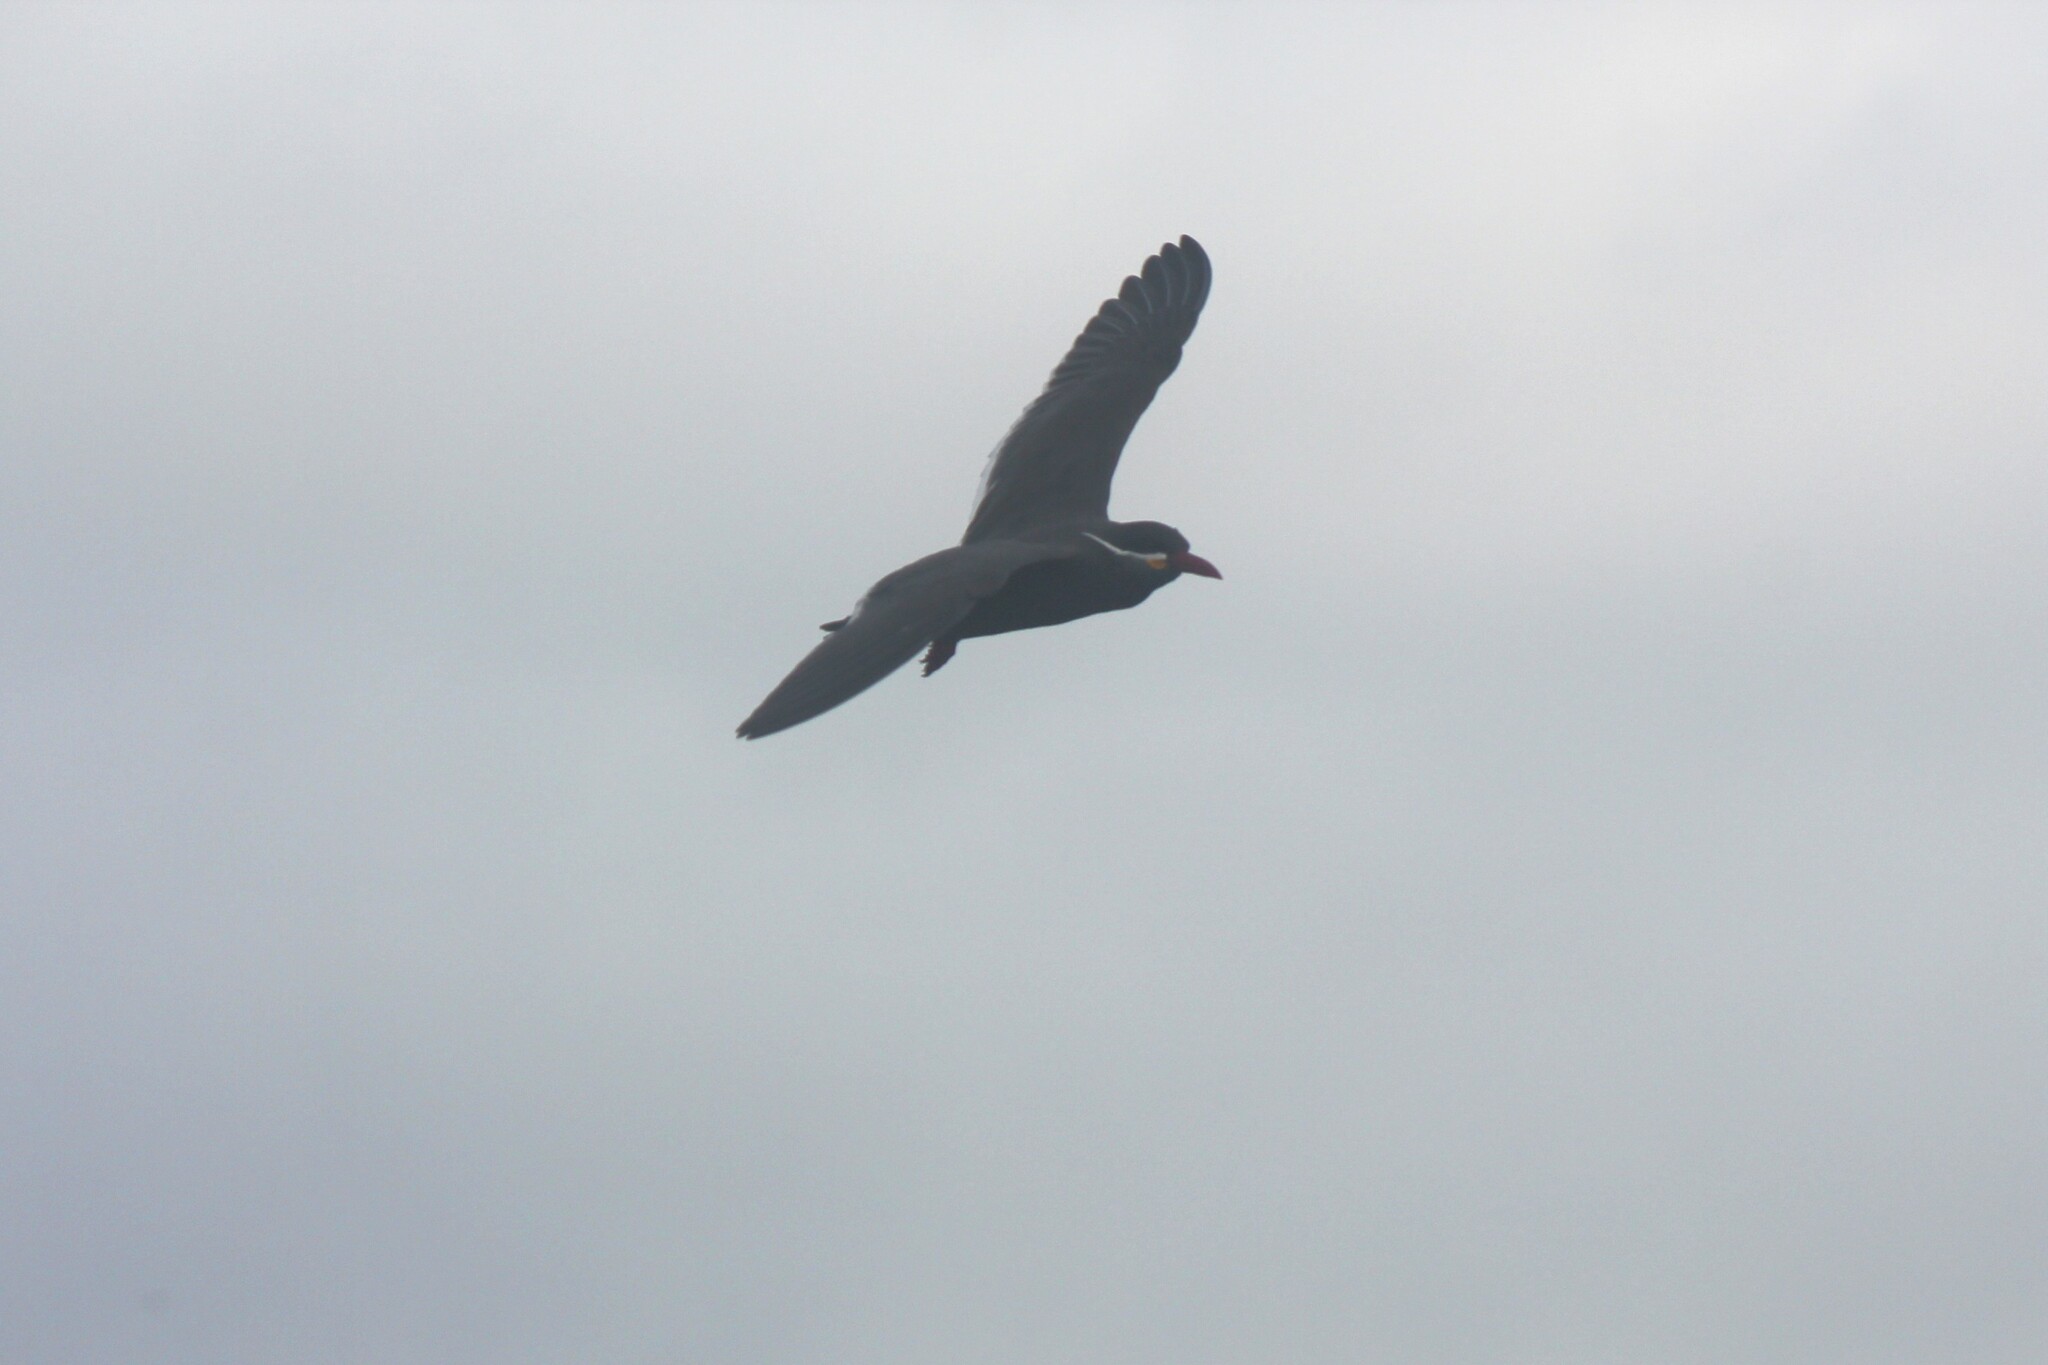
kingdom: Animalia
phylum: Chordata
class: Aves
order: Charadriiformes
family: Laridae
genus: Larosterna
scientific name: Larosterna inca
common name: Inca tern
